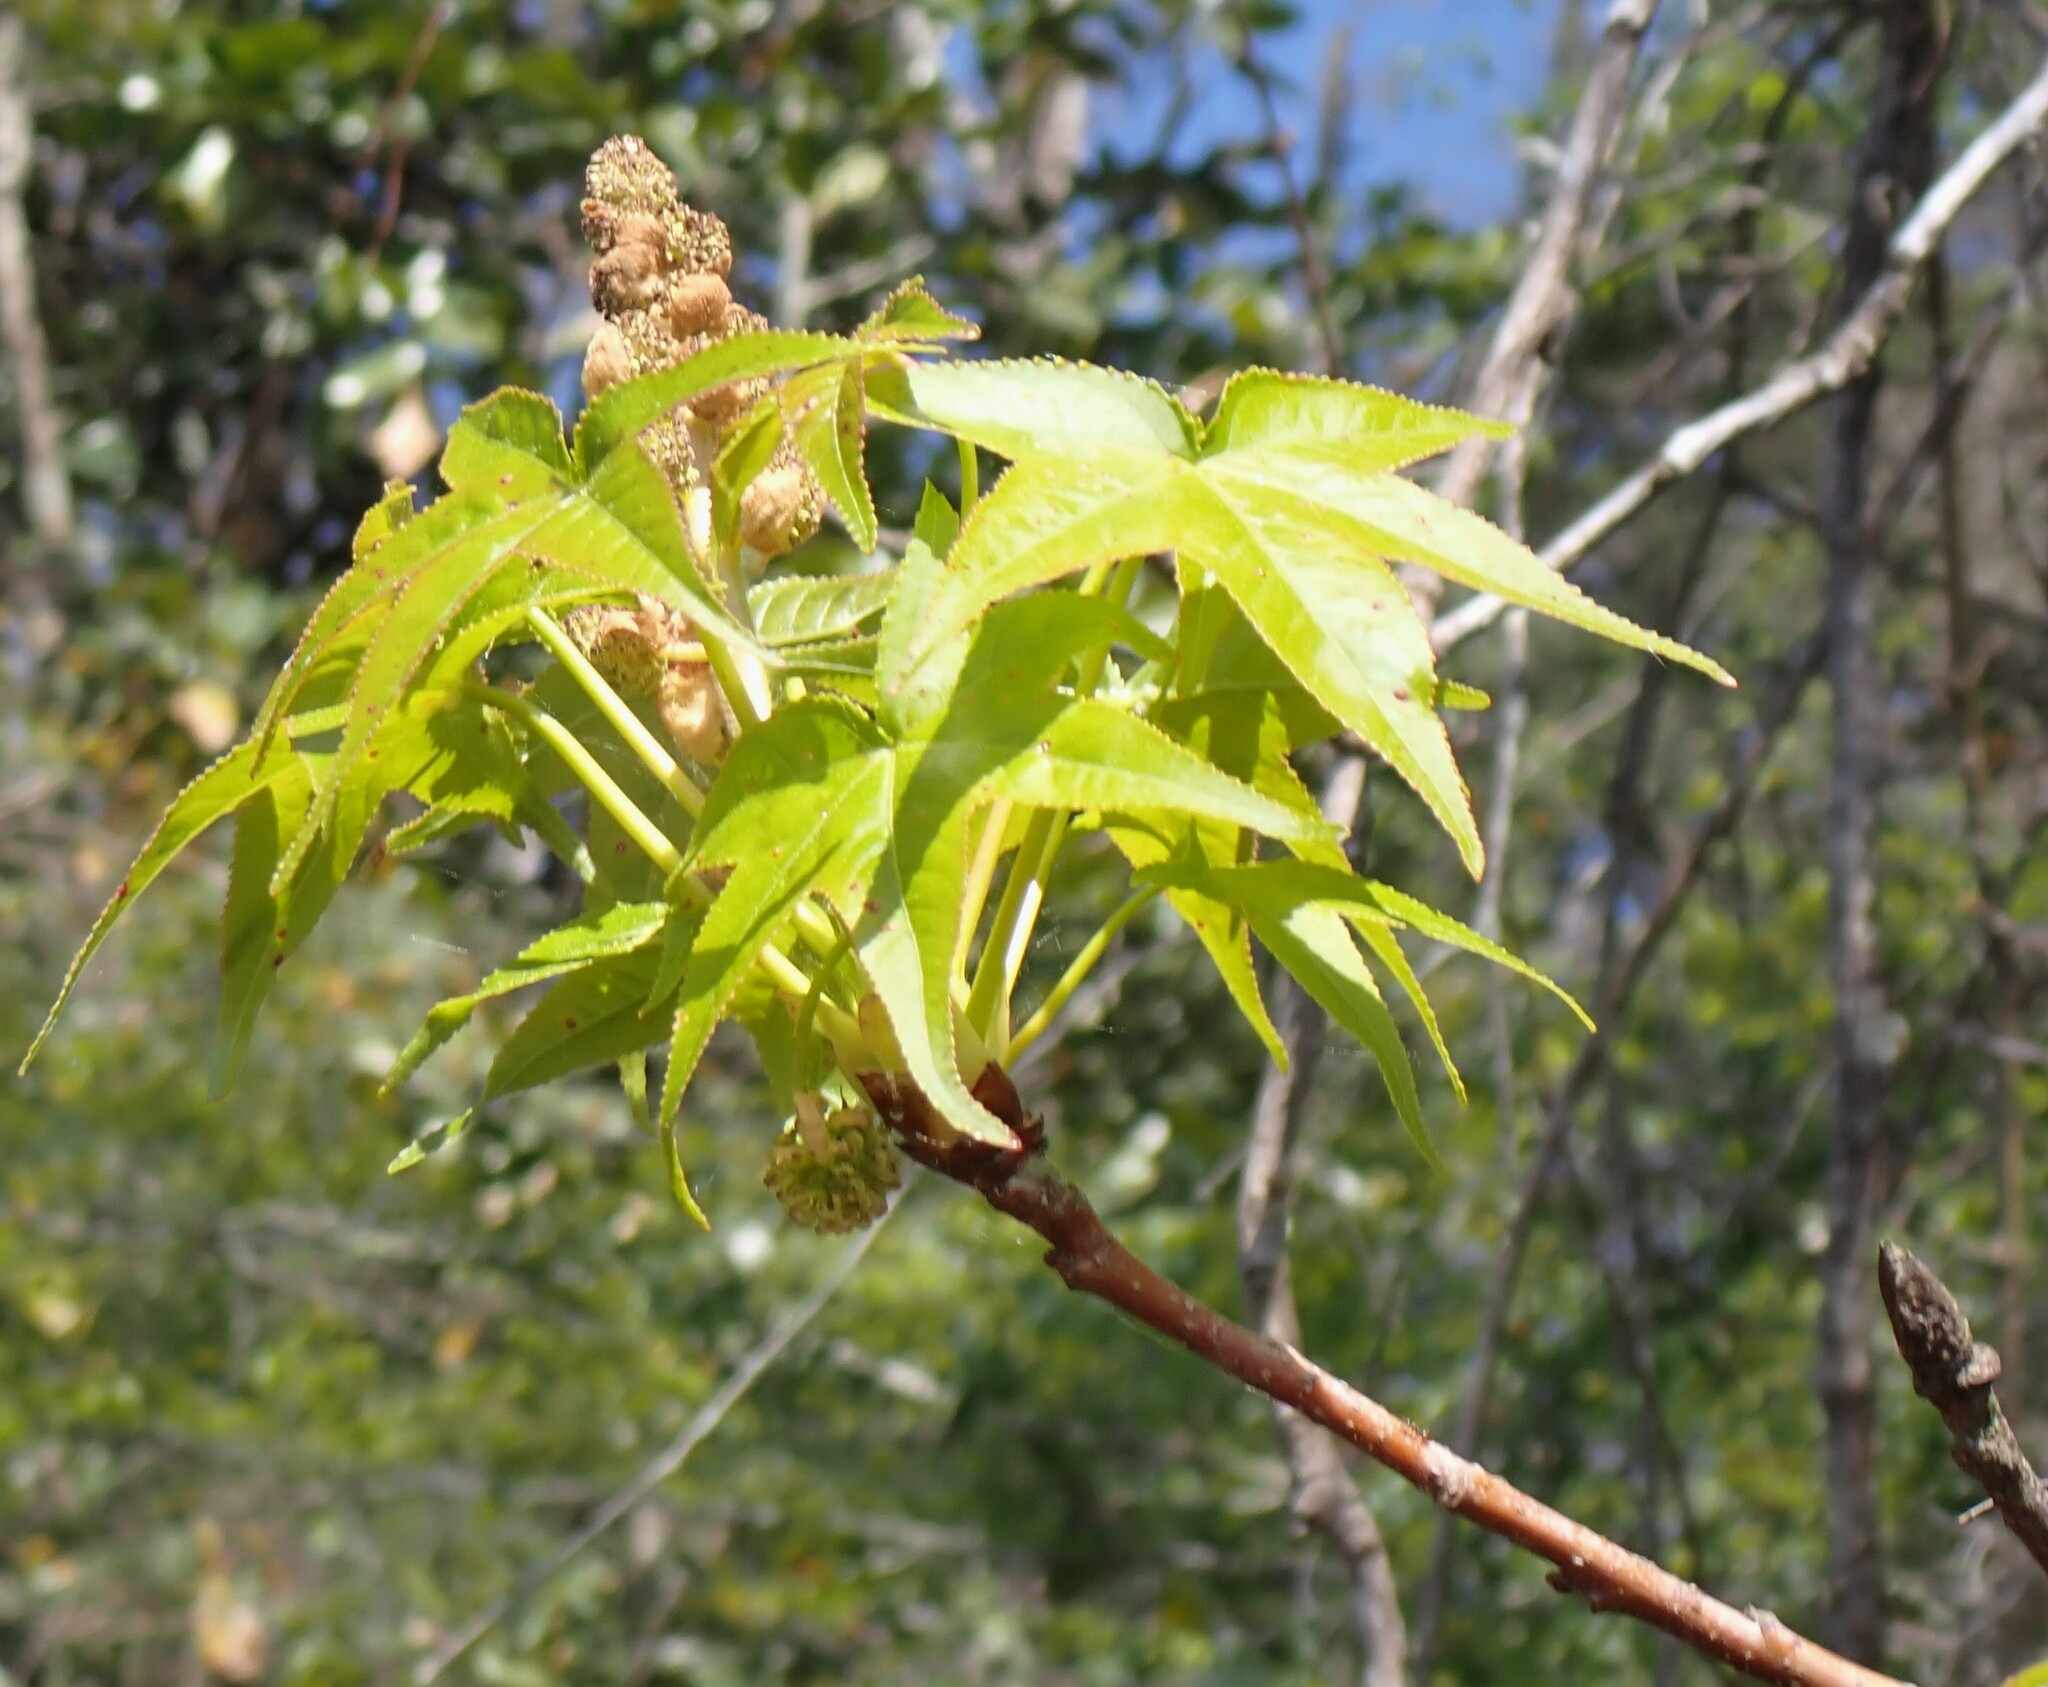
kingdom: Plantae
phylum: Tracheophyta
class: Magnoliopsida
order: Saxifragales
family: Altingiaceae
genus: Liquidambar
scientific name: Liquidambar styraciflua
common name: Sweet gum
